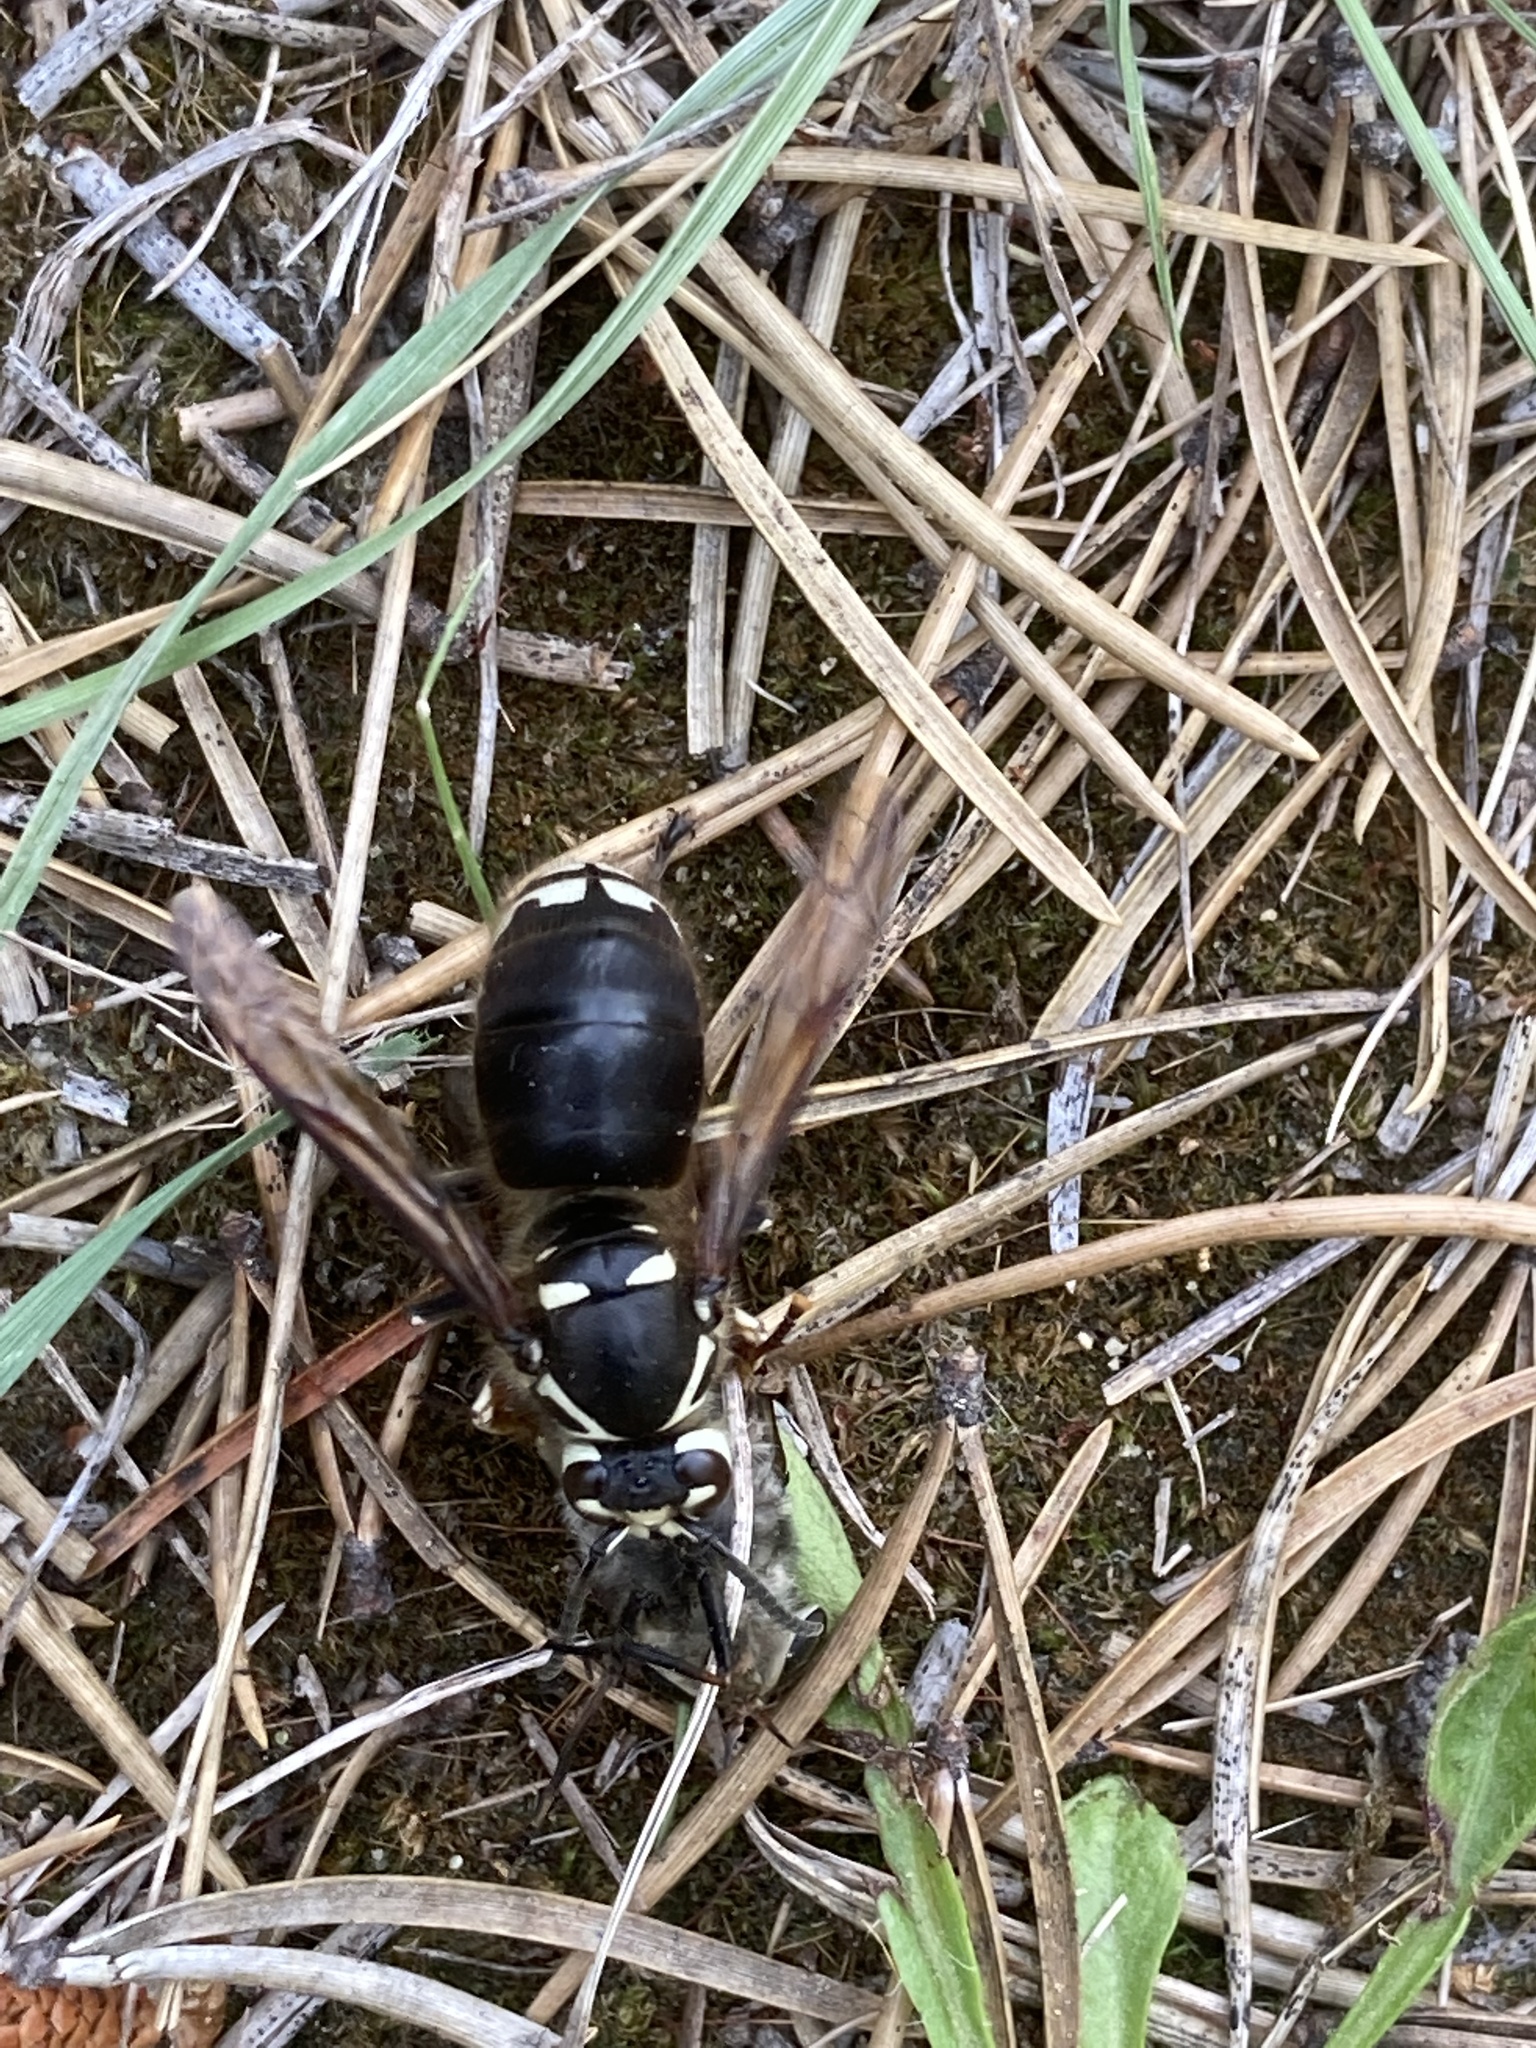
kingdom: Animalia
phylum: Arthropoda
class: Insecta
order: Hymenoptera
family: Vespidae
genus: Dolichovespula
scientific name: Dolichovespula maculata
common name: Bald-faced hornet
